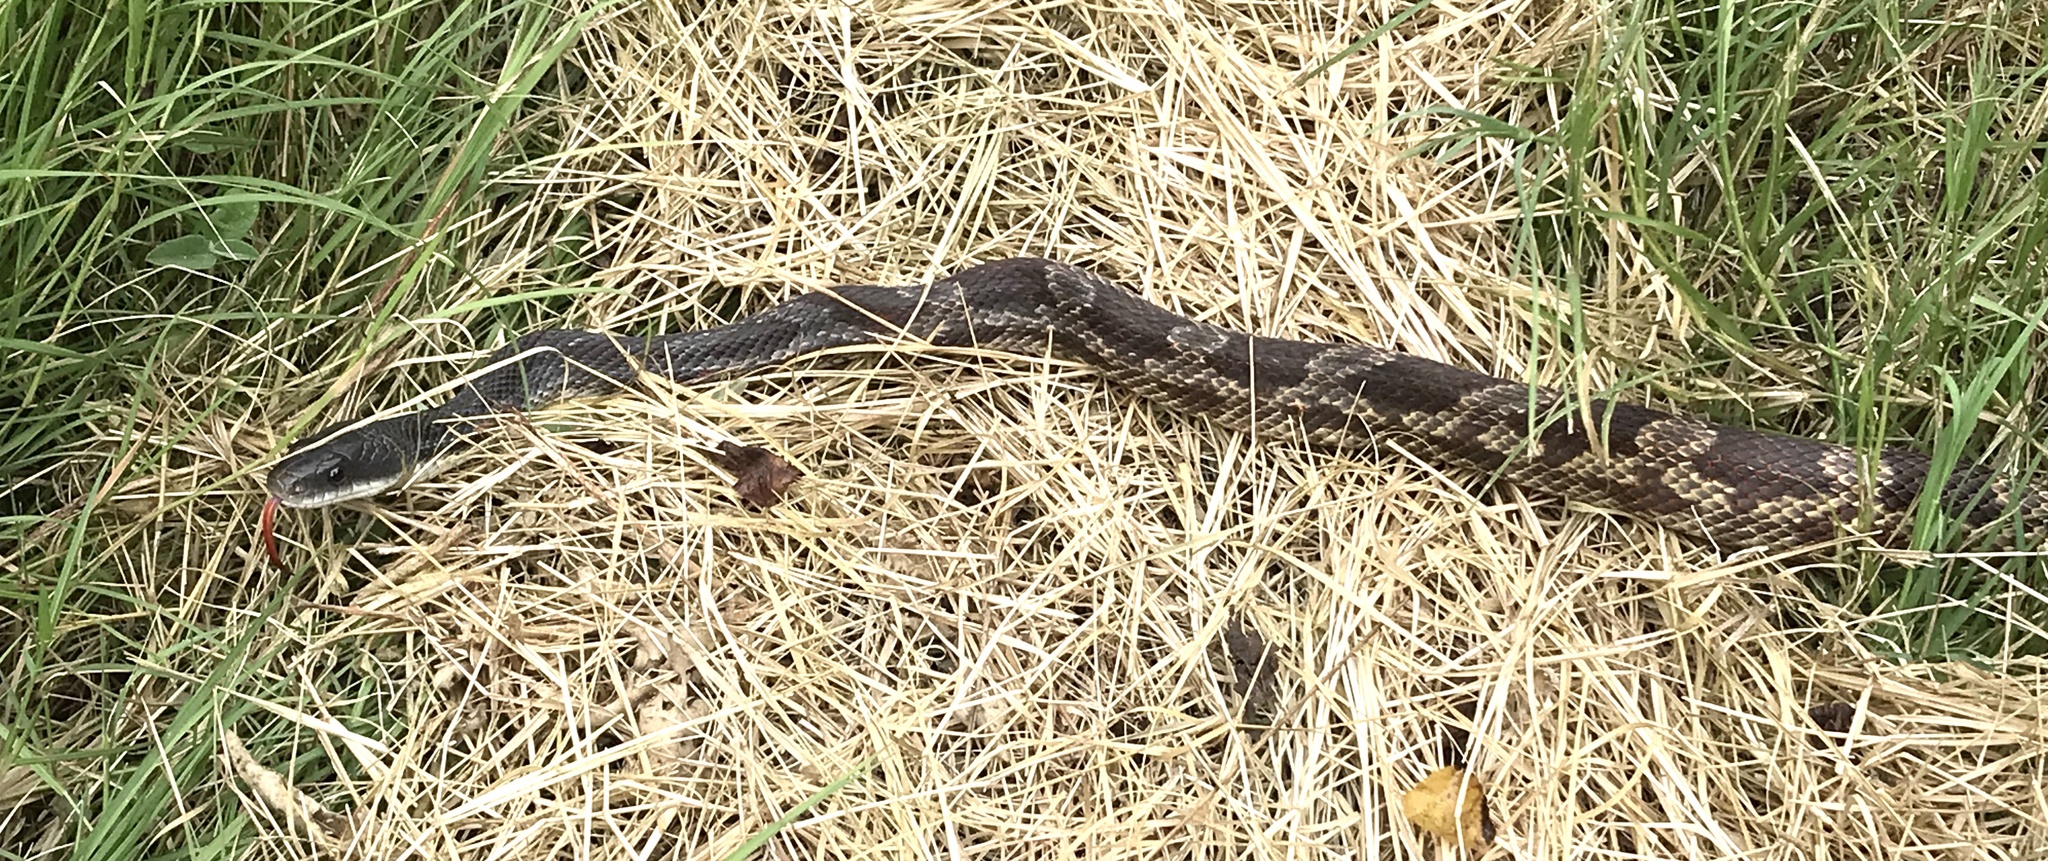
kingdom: Animalia
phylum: Chordata
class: Squamata
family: Colubridae
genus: Pantherophis
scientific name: Pantherophis obsoletus
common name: Black rat snake
